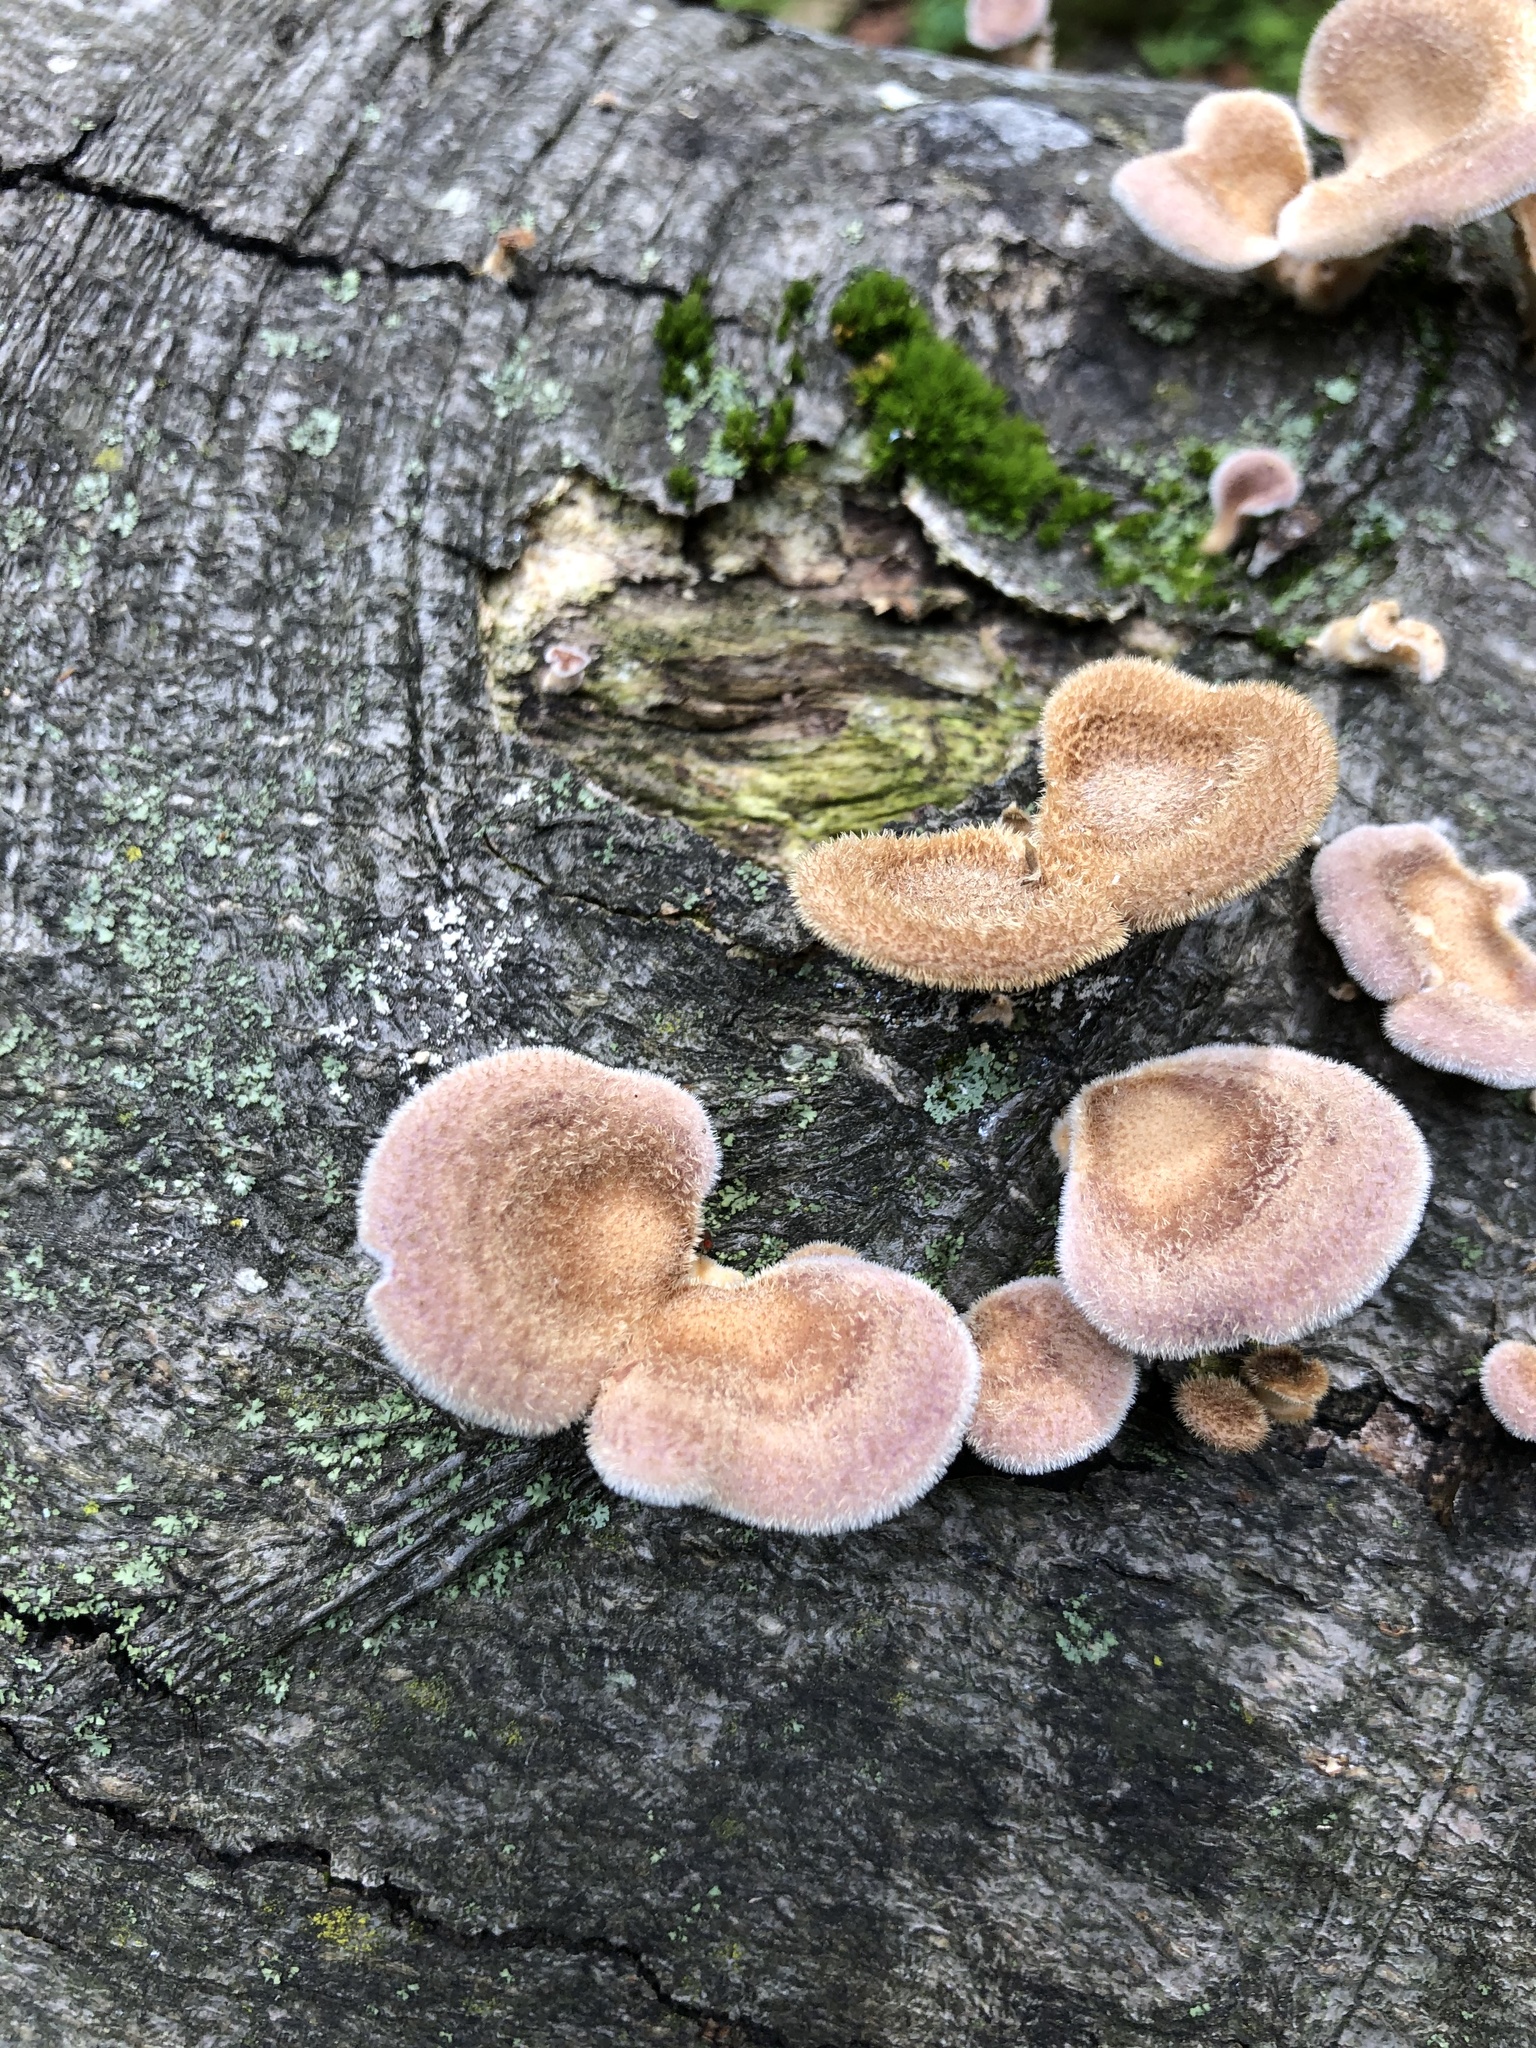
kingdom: Fungi
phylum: Basidiomycota
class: Agaricomycetes
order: Polyporales
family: Panaceae
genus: Panus
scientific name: Panus neostrigosus
